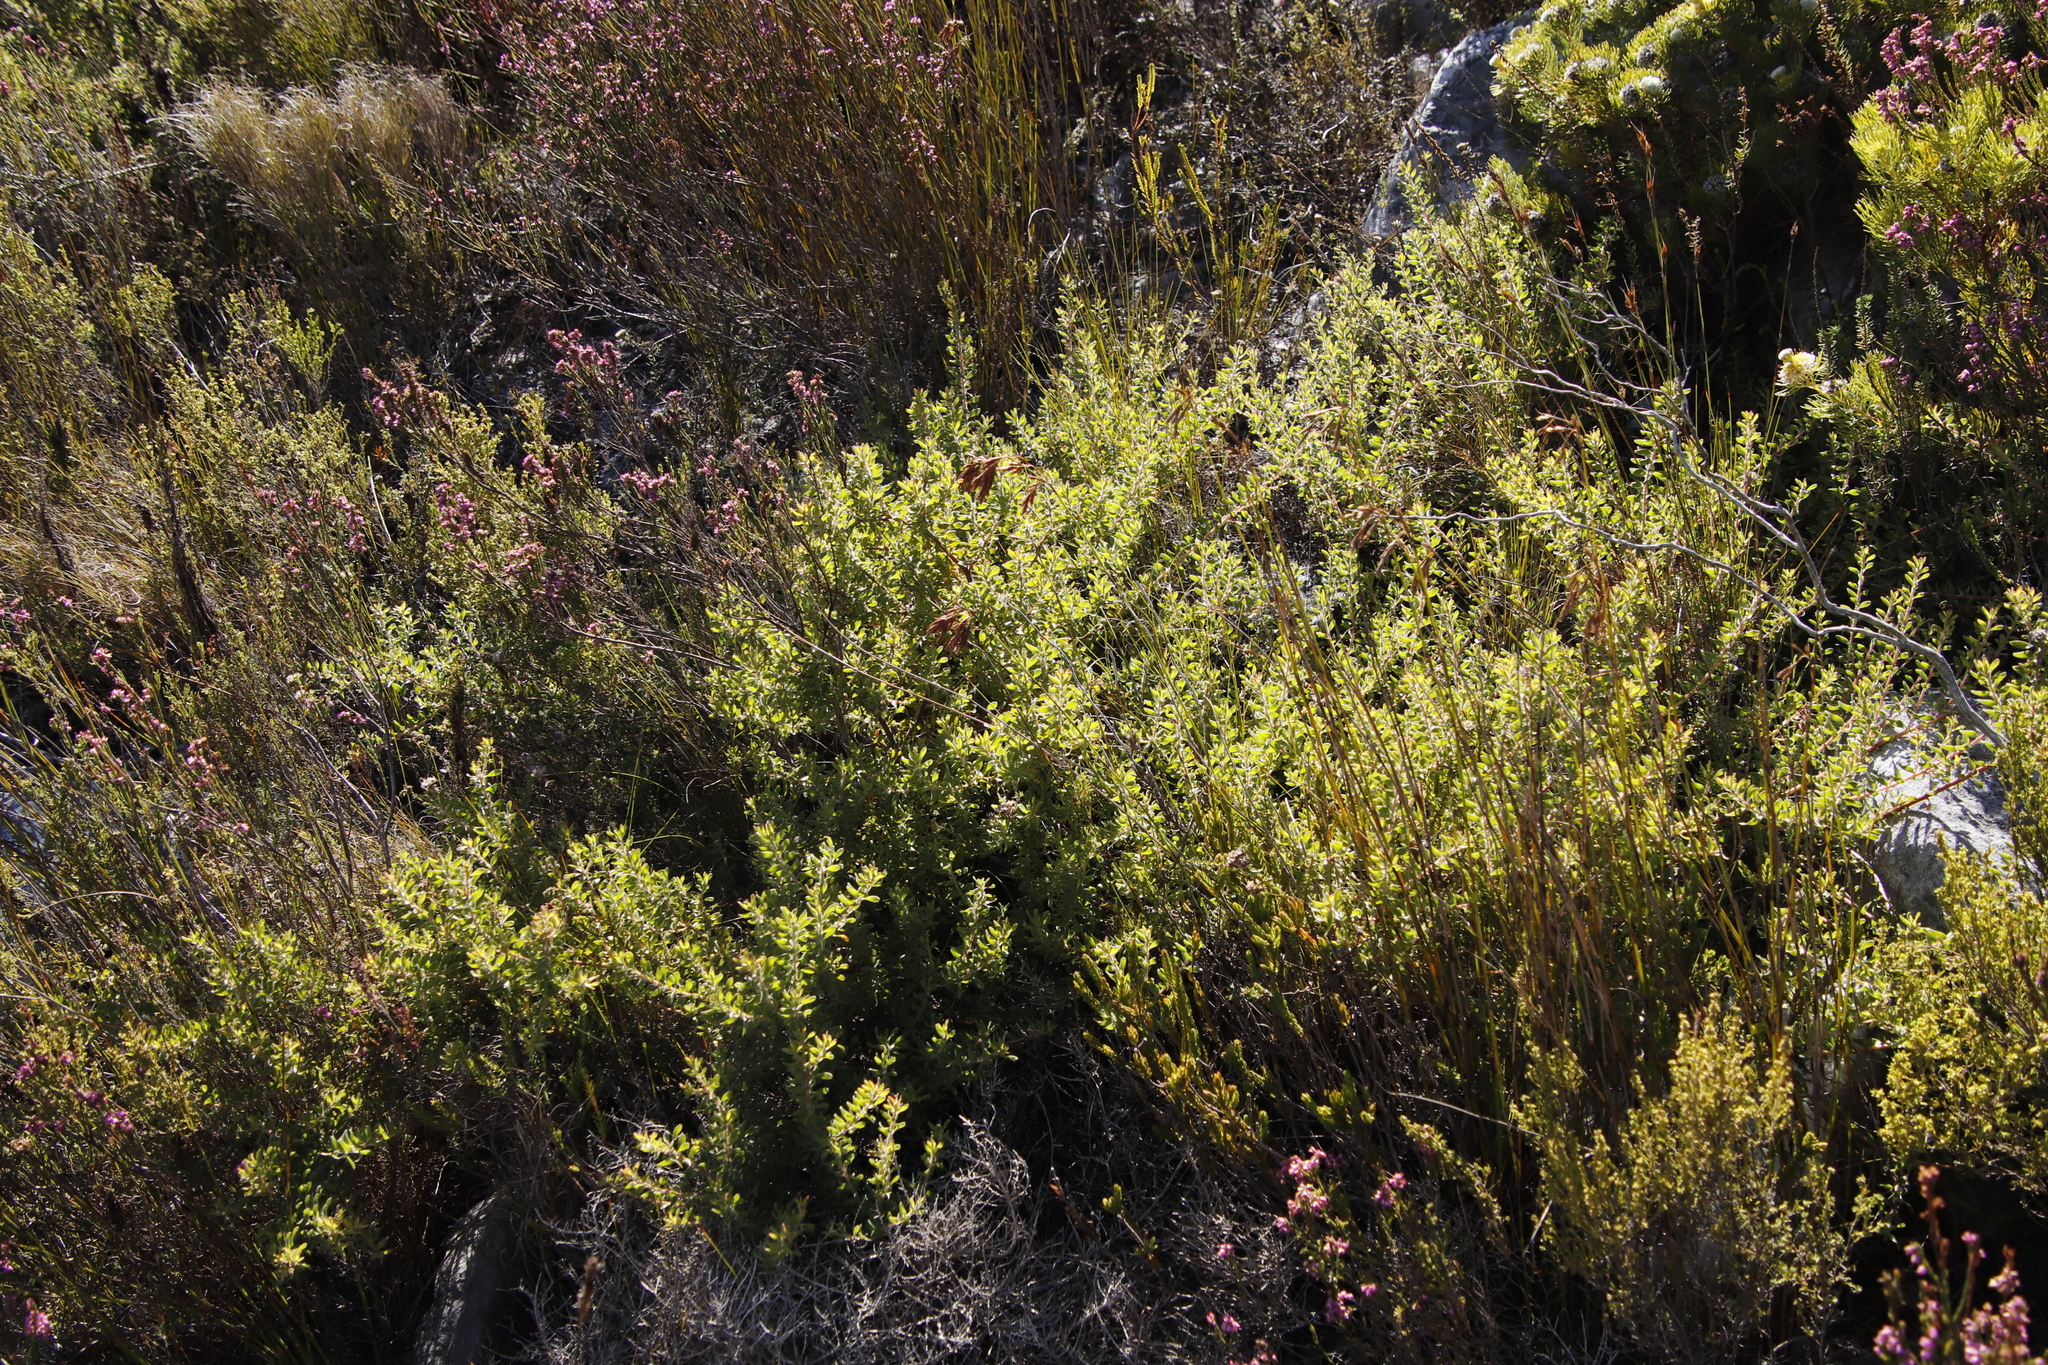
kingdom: Plantae
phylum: Tracheophyta
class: Magnoliopsida
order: Proteales
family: Proteaceae
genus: Diastella
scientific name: Diastella divaricata
